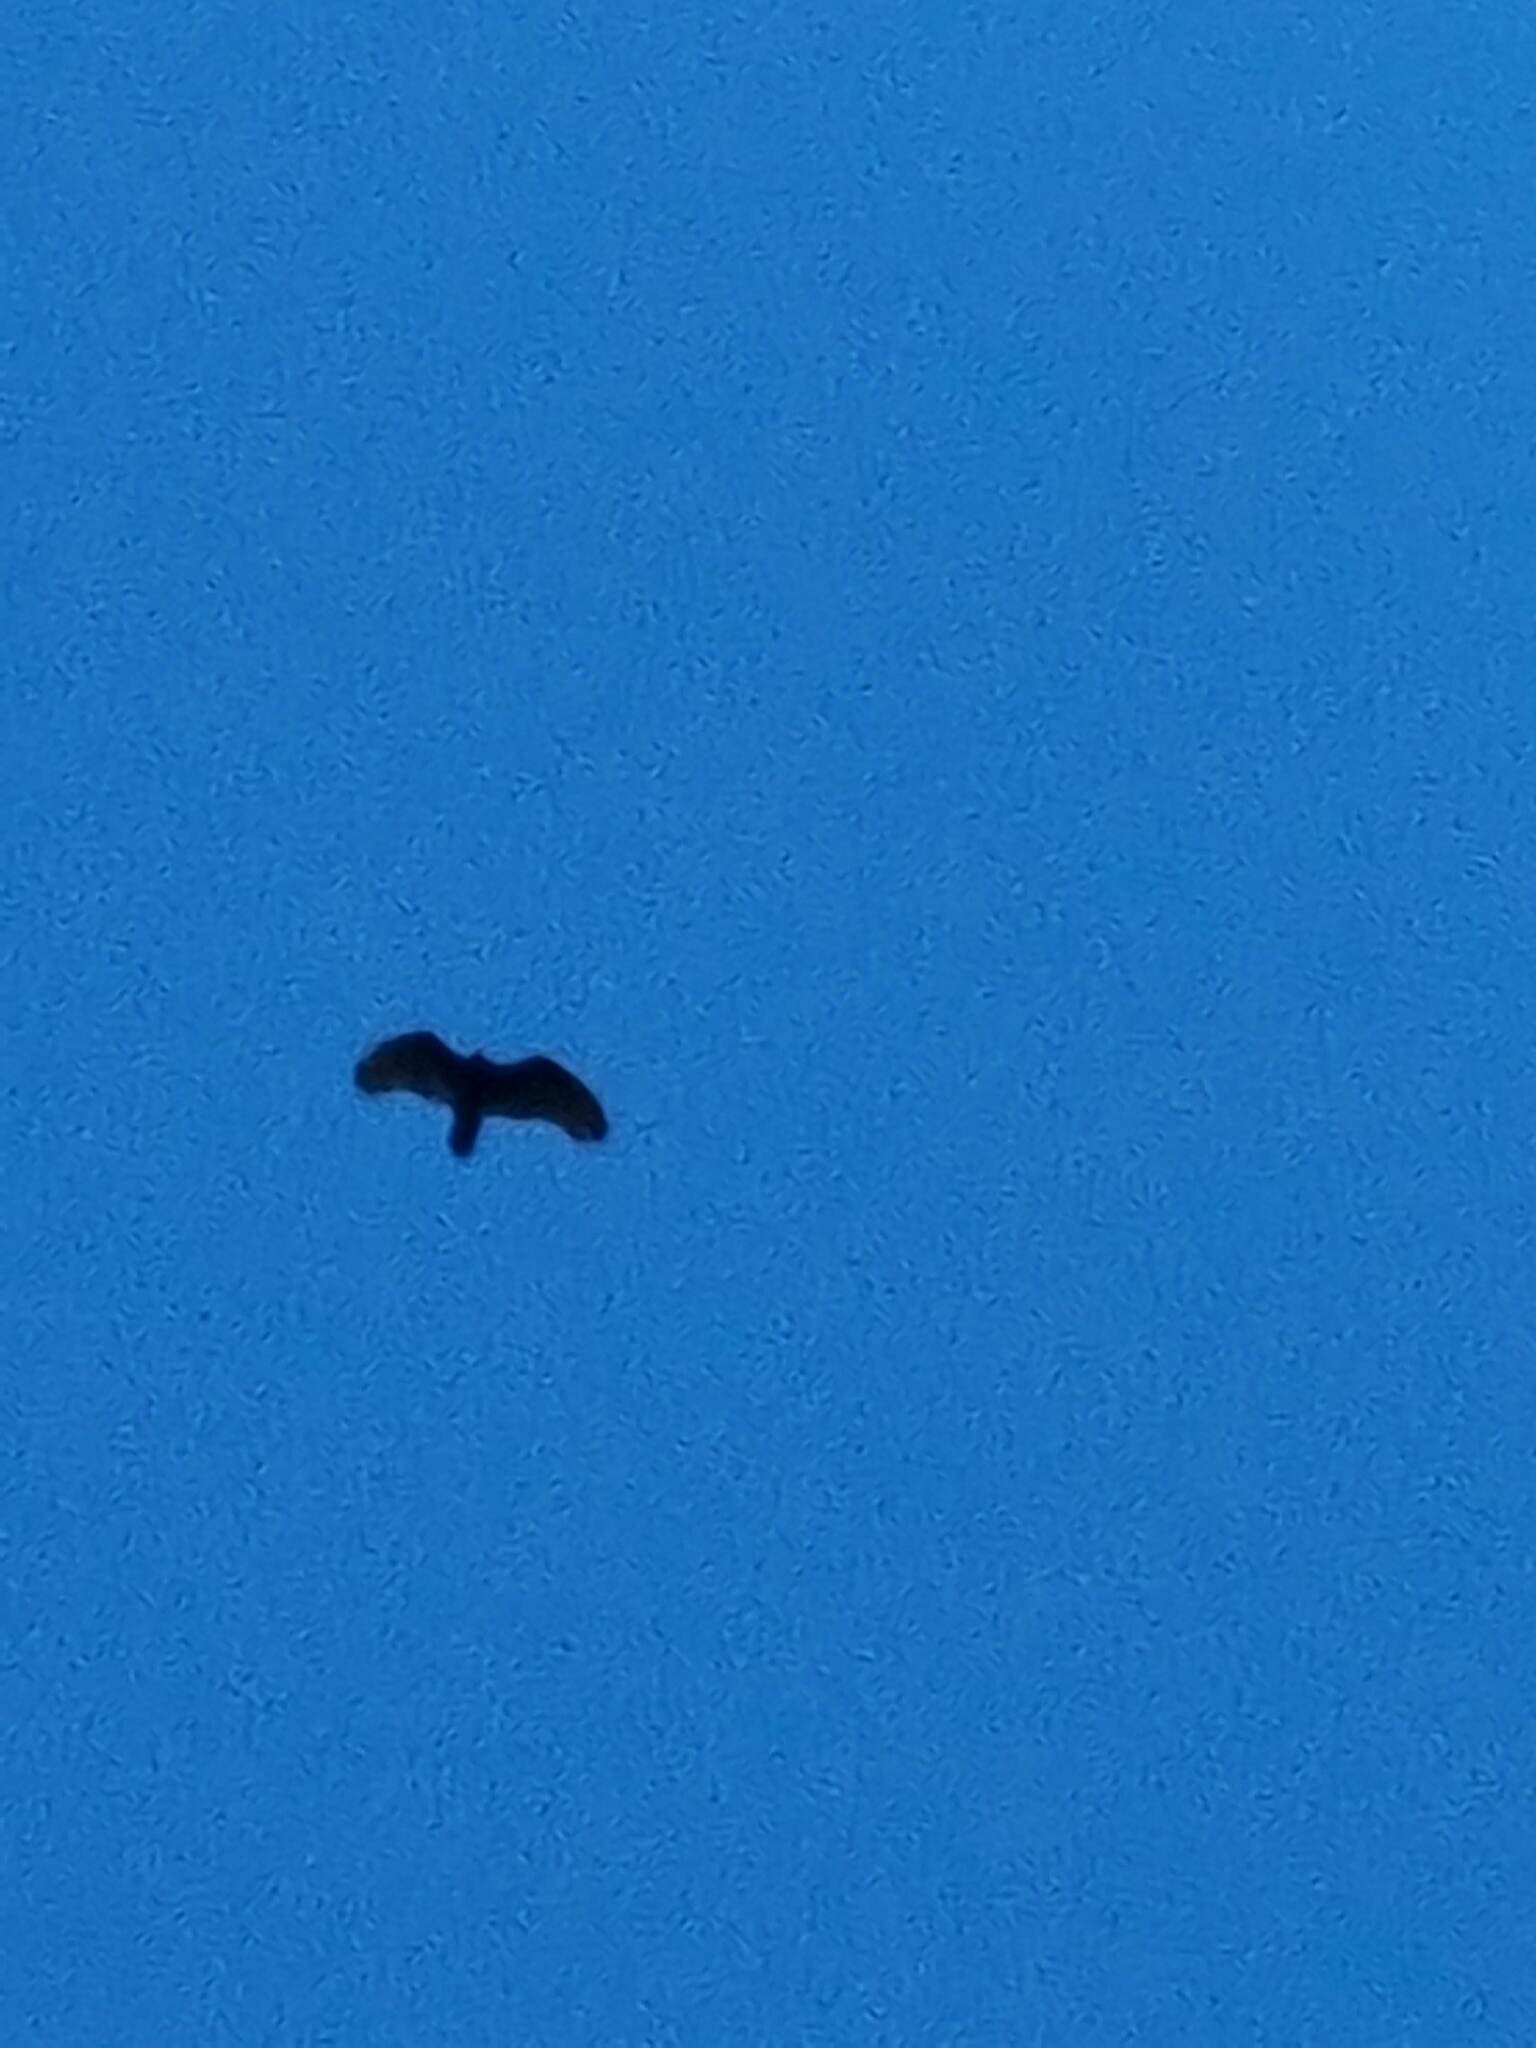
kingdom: Animalia
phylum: Chordata
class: Aves
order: Accipitriformes
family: Cathartidae
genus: Cathartes
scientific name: Cathartes aura
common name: Turkey vulture
